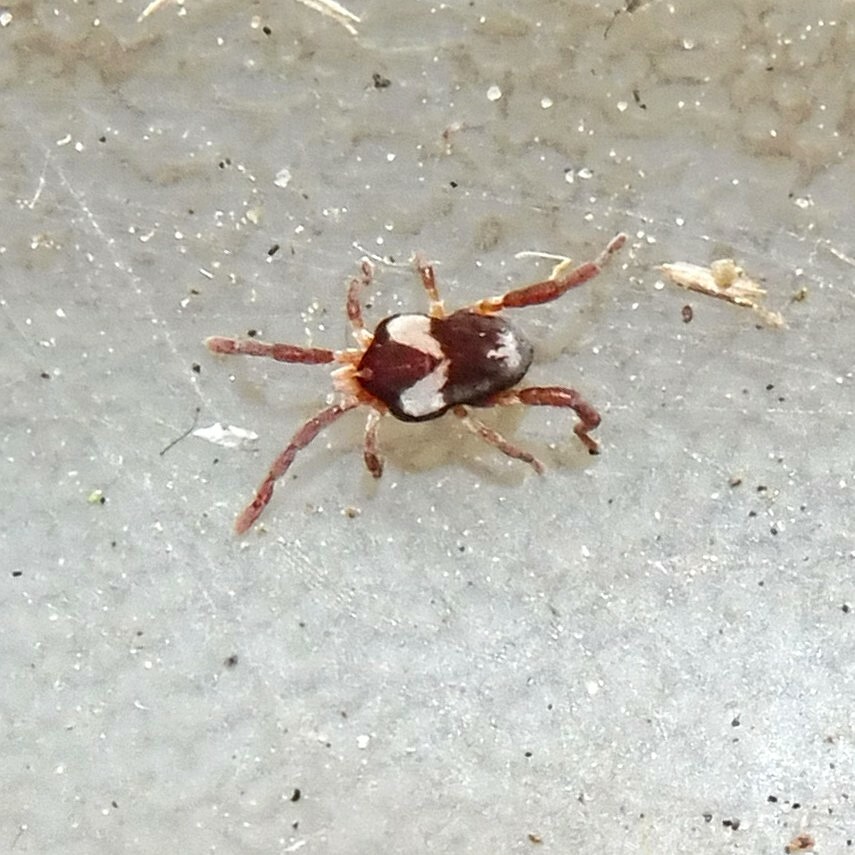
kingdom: Animalia
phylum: Arthropoda
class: Arachnida
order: Trombidiformes
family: Erythraeidae
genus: Leptus
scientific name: Leptus trimaculatus
